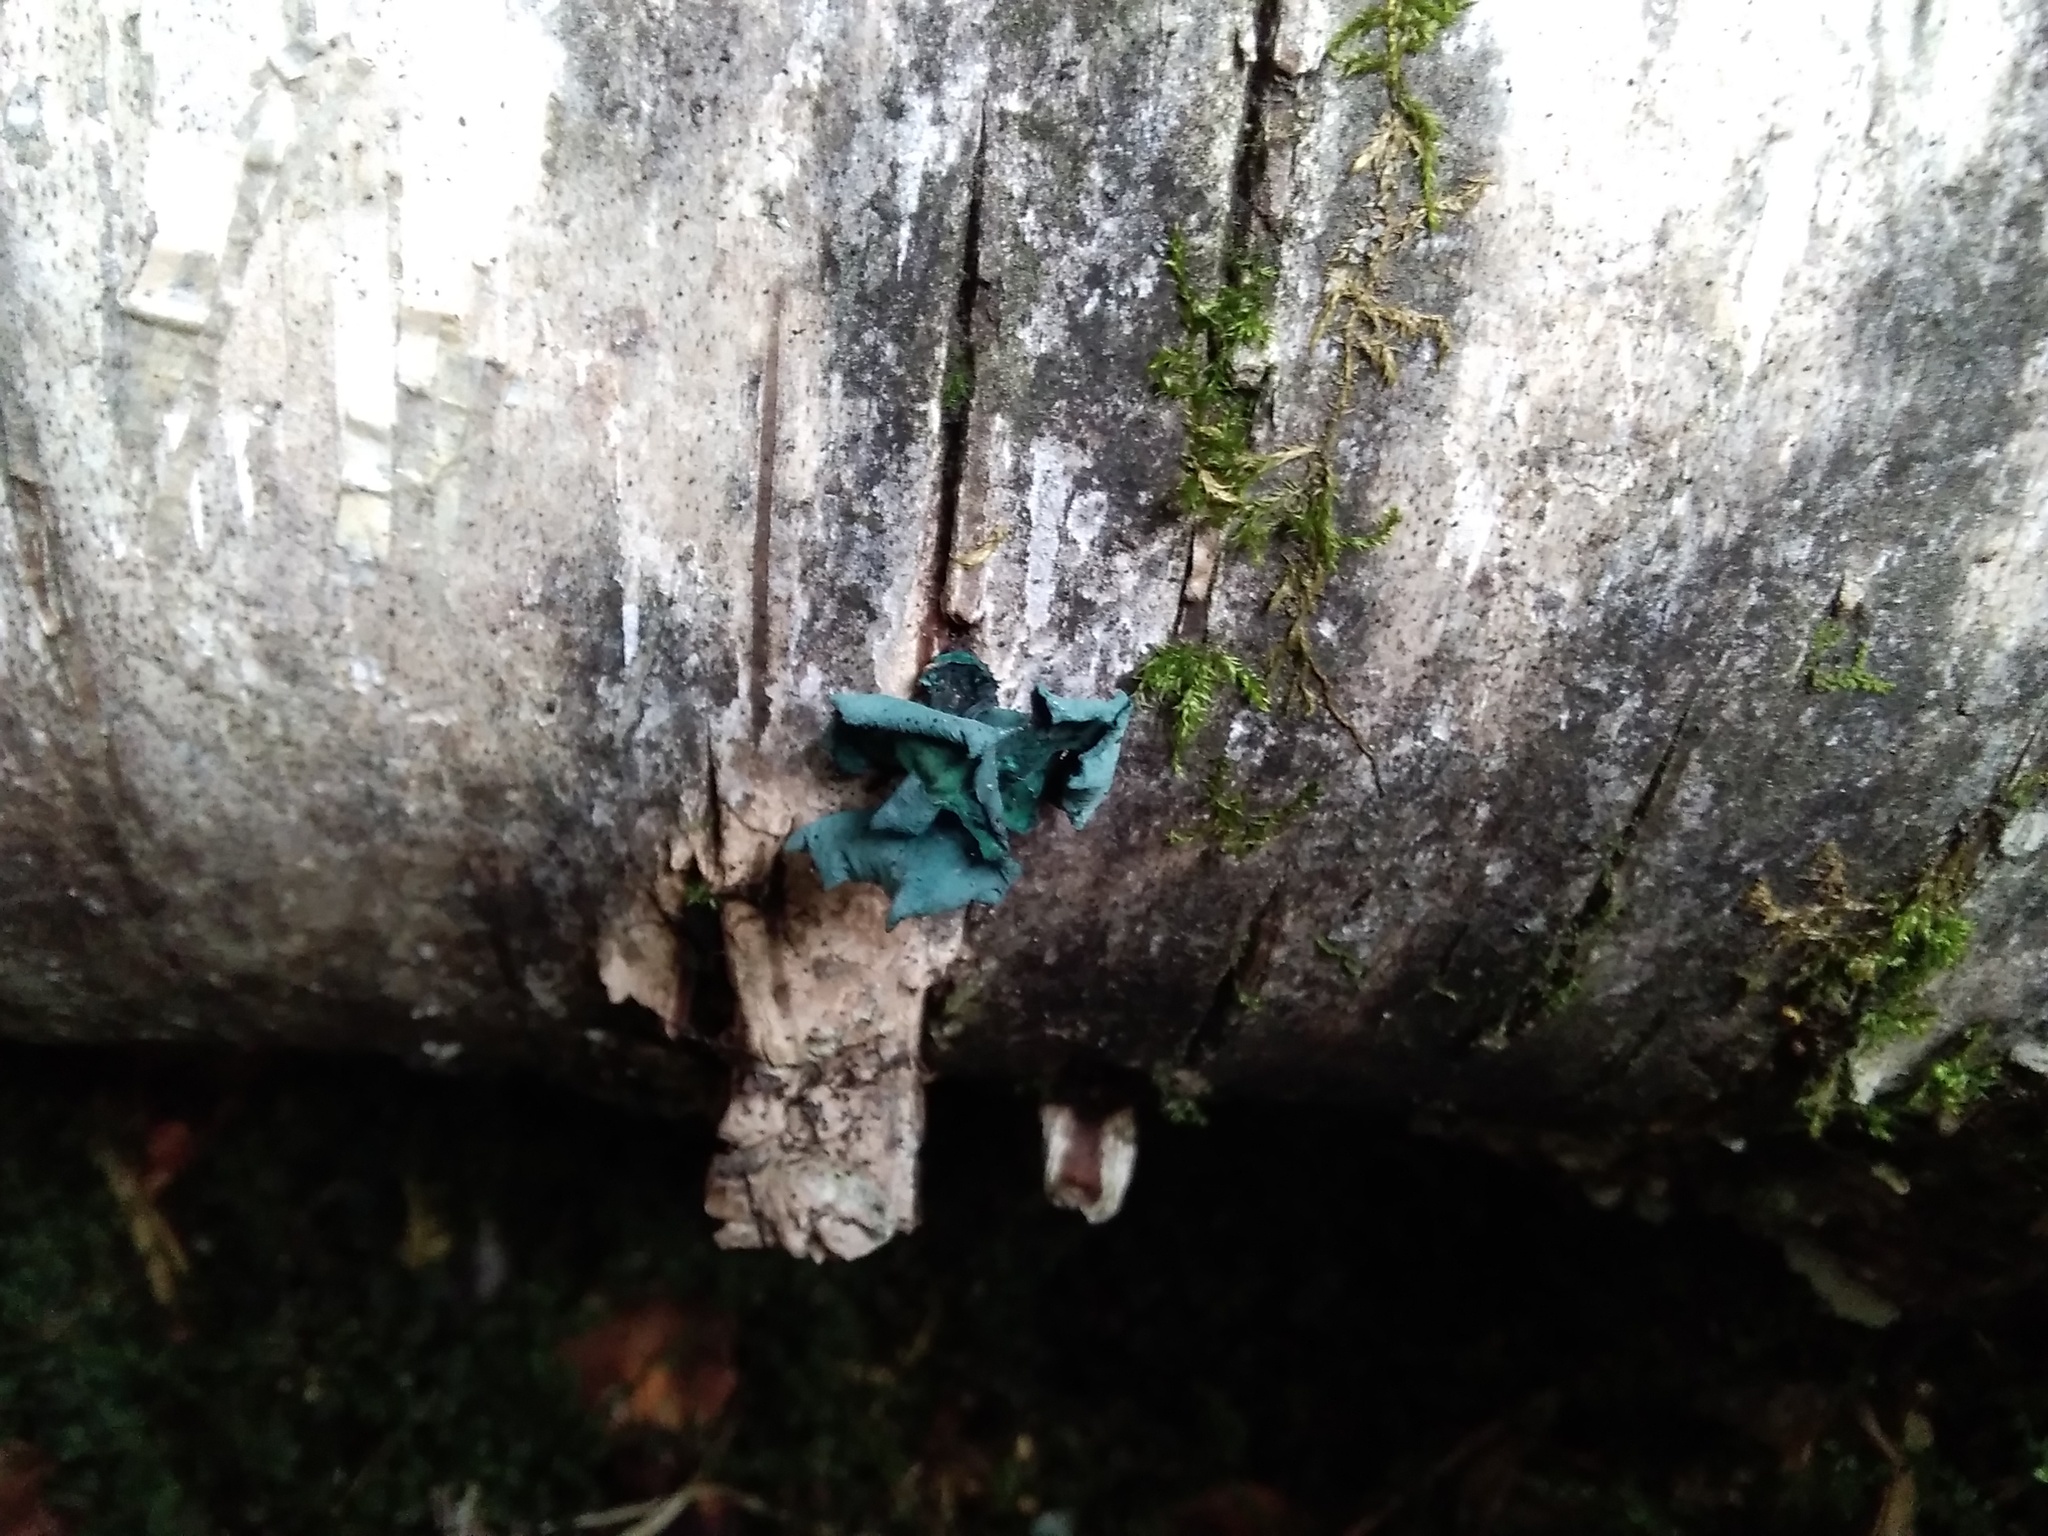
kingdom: Fungi
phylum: Ascomycota
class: Leotiomycetes
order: Helotiales
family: Chlorociboriaceae
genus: Chlorociboria
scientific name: Chlorociboria aeruginascens
